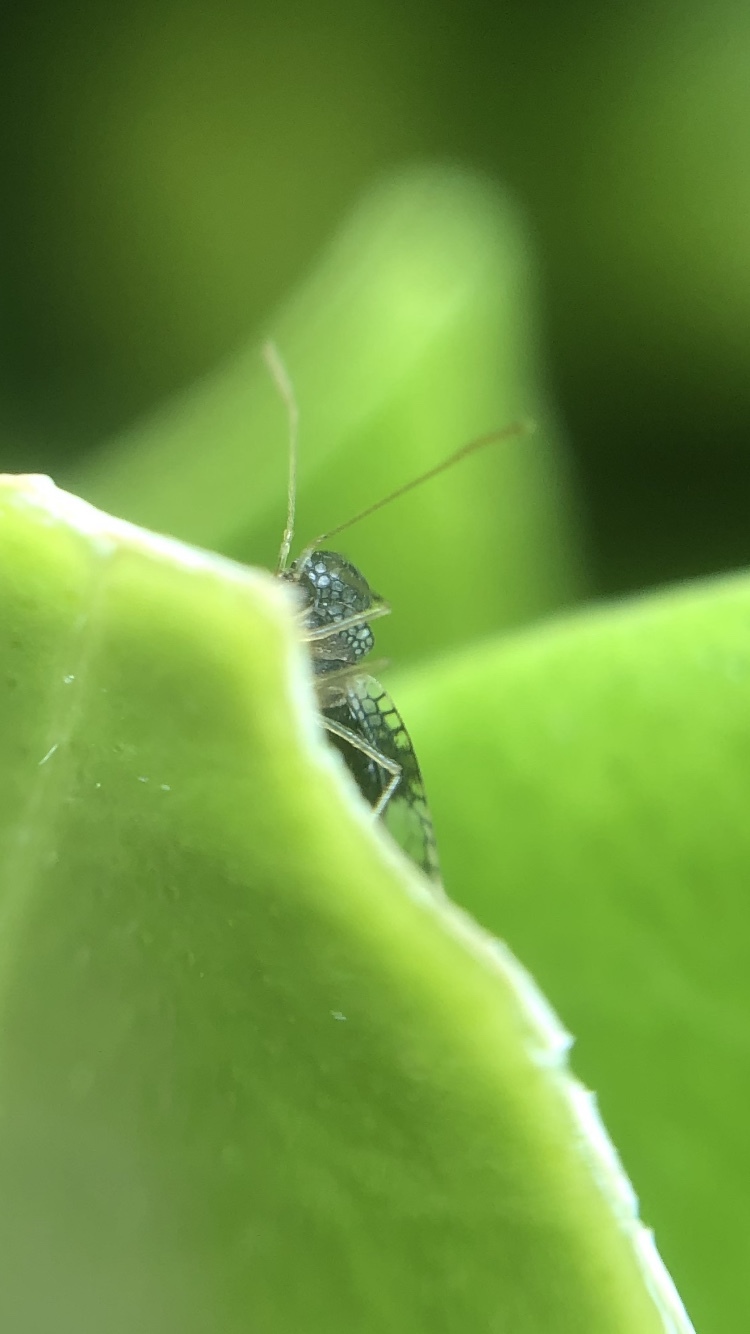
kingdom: Animalia
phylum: Arthropoda
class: Insecta
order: Hemiptera
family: Tingidae
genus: Stephanitis
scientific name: Stephanitis takeyai
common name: Andromeda lacebug
